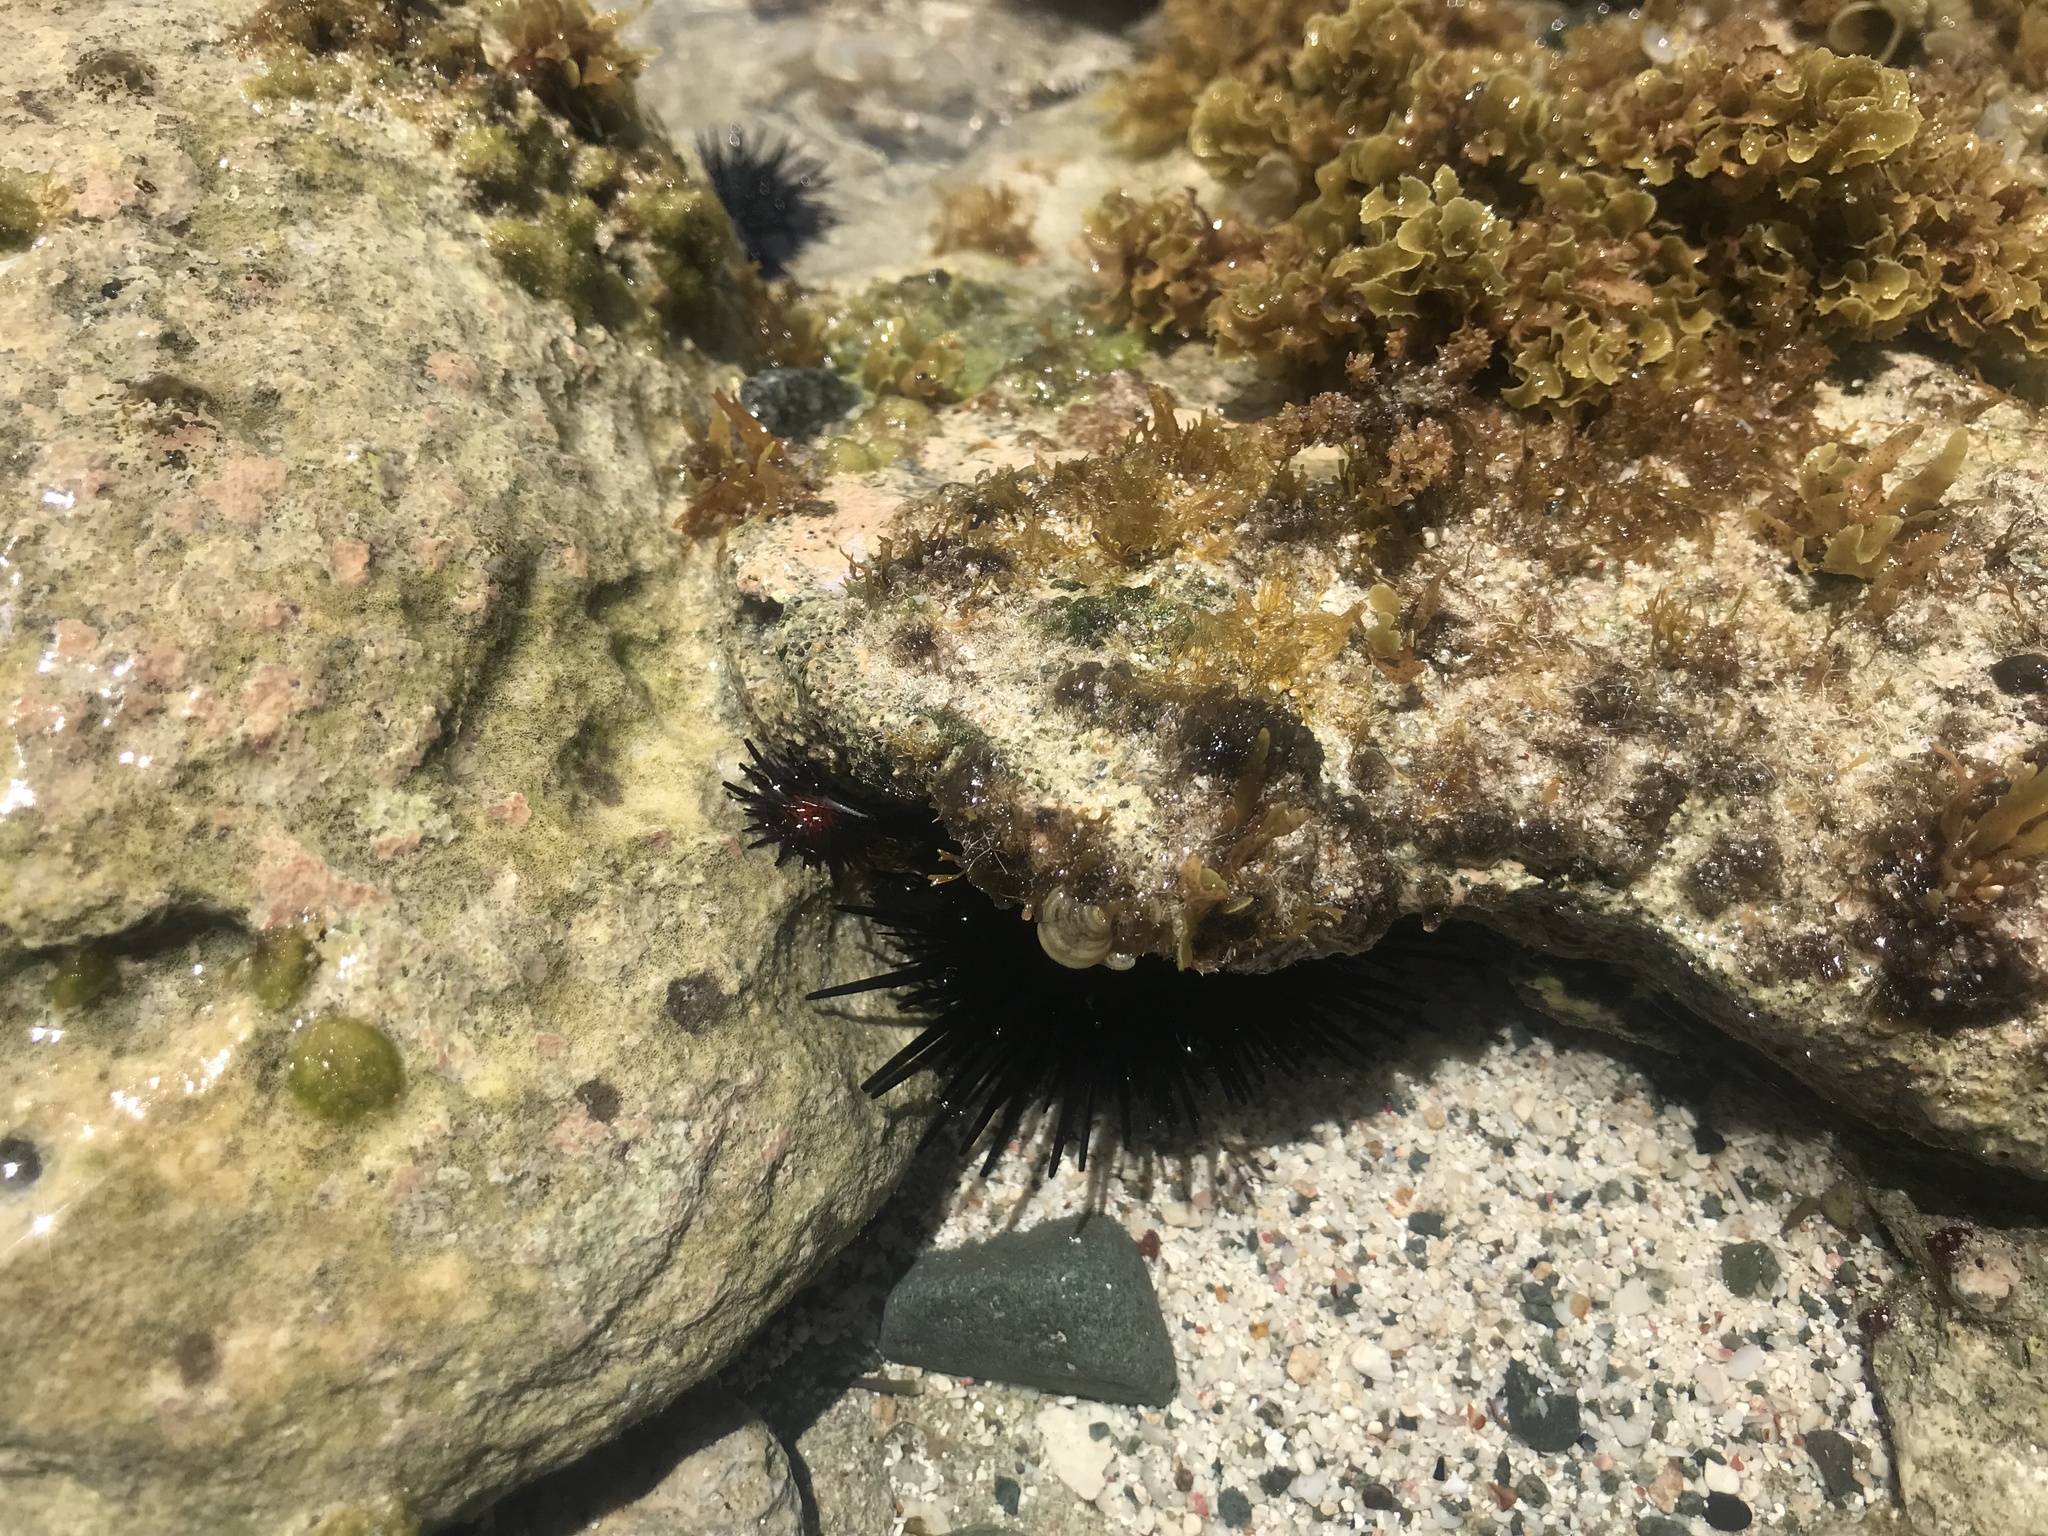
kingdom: Animalia
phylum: Echinodermata
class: Echinoidea
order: Camarodonta
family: Echinometridae
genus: Echinometra
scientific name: Echinometra lucunter
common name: Rock urchin
